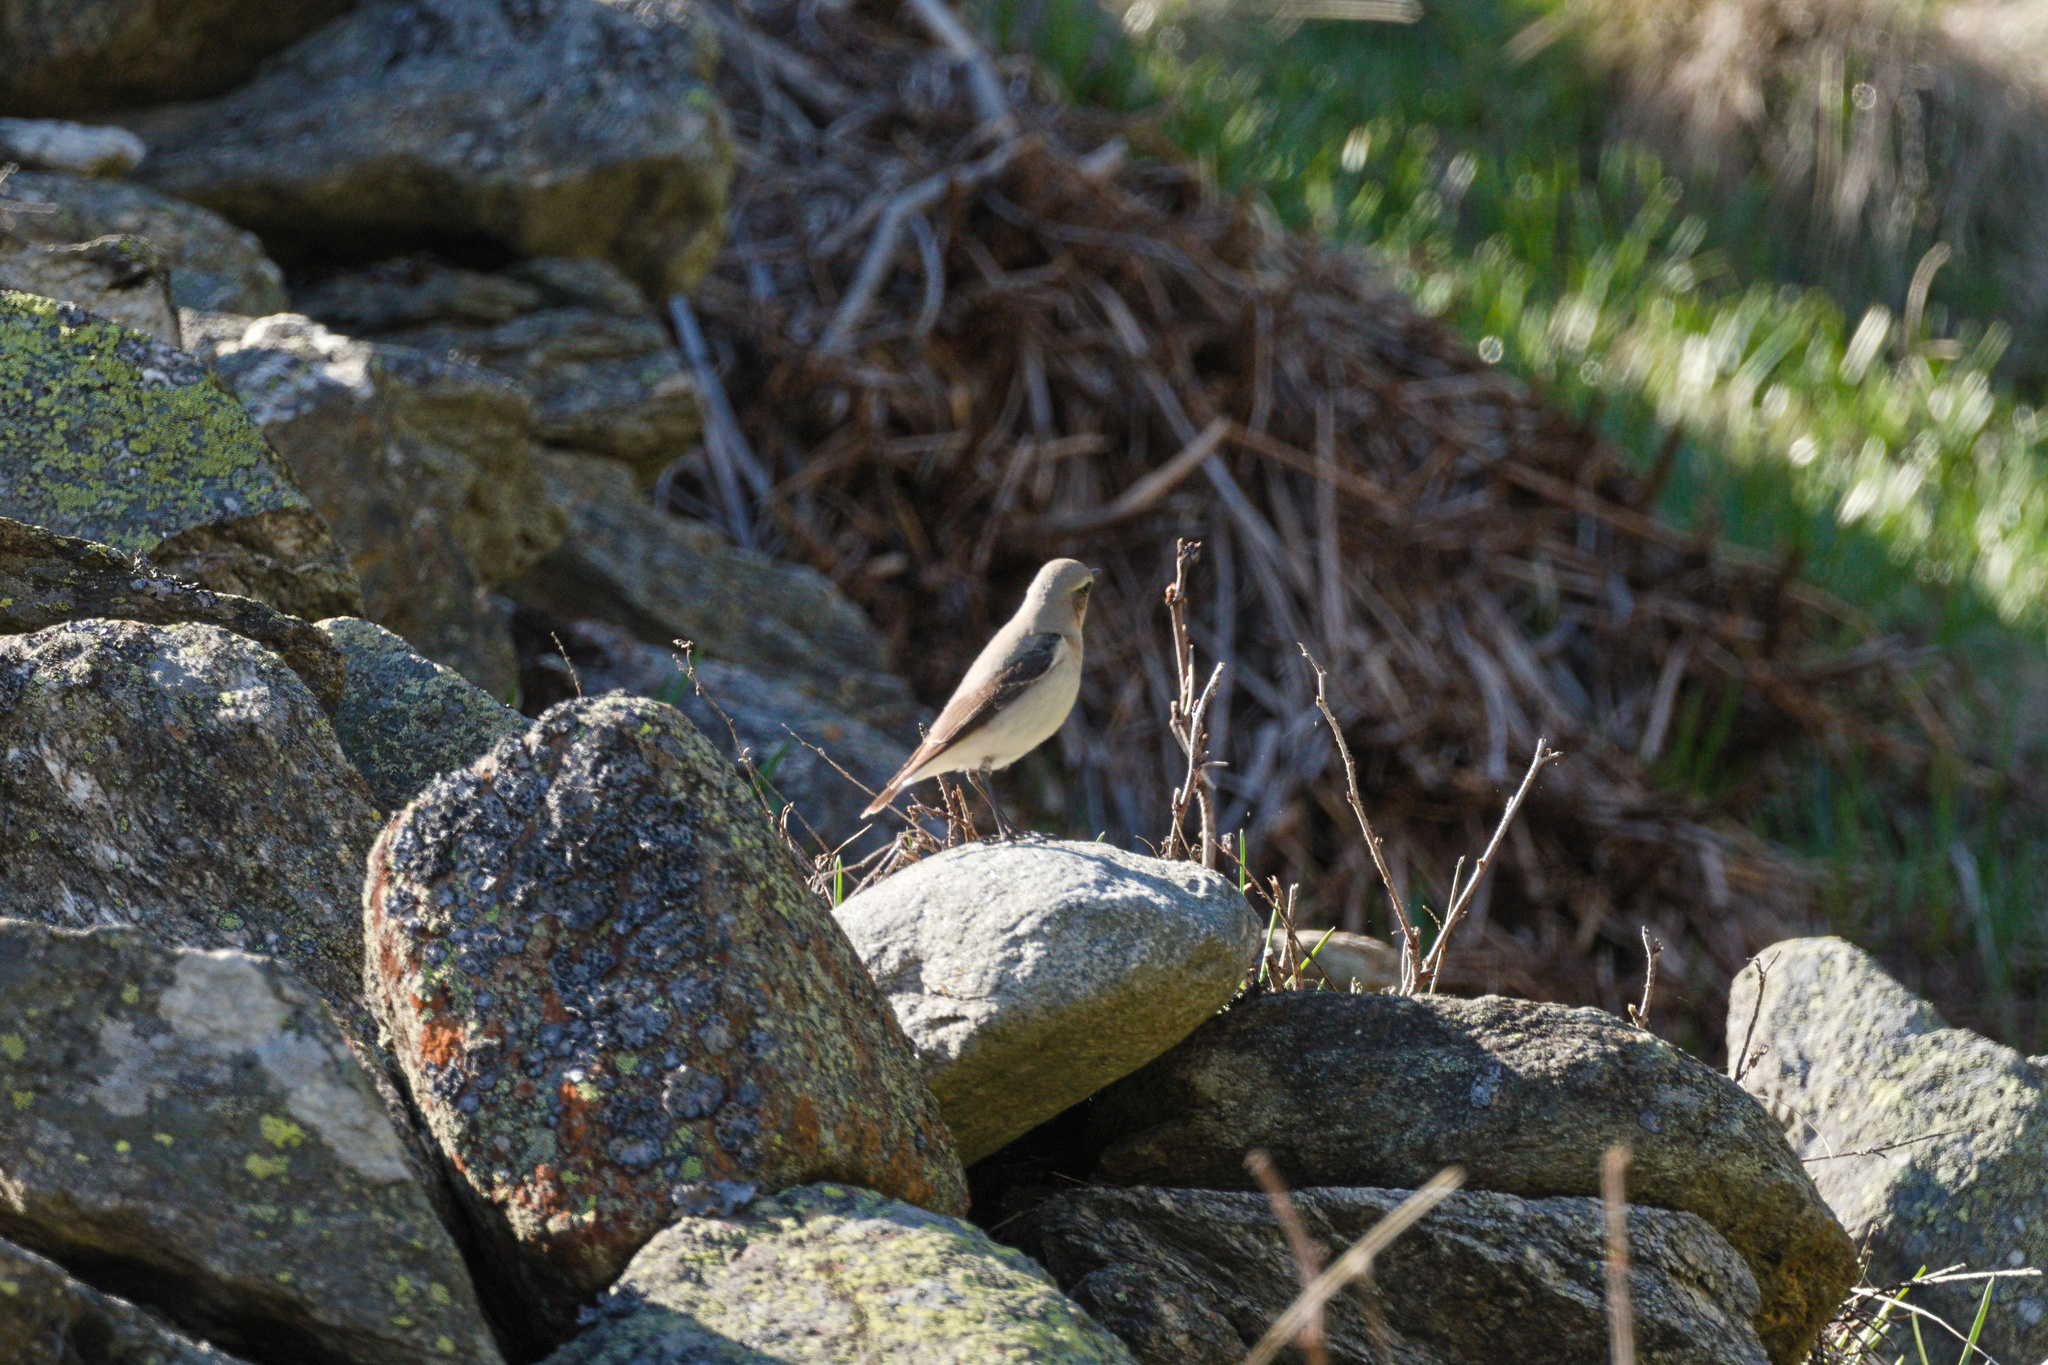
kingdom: Animalia
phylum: Chordata
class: Aves
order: Passeriformes
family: Muscicapidae
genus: Oenanthe
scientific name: Oenanthe oenanthe
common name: Northern wheatear
